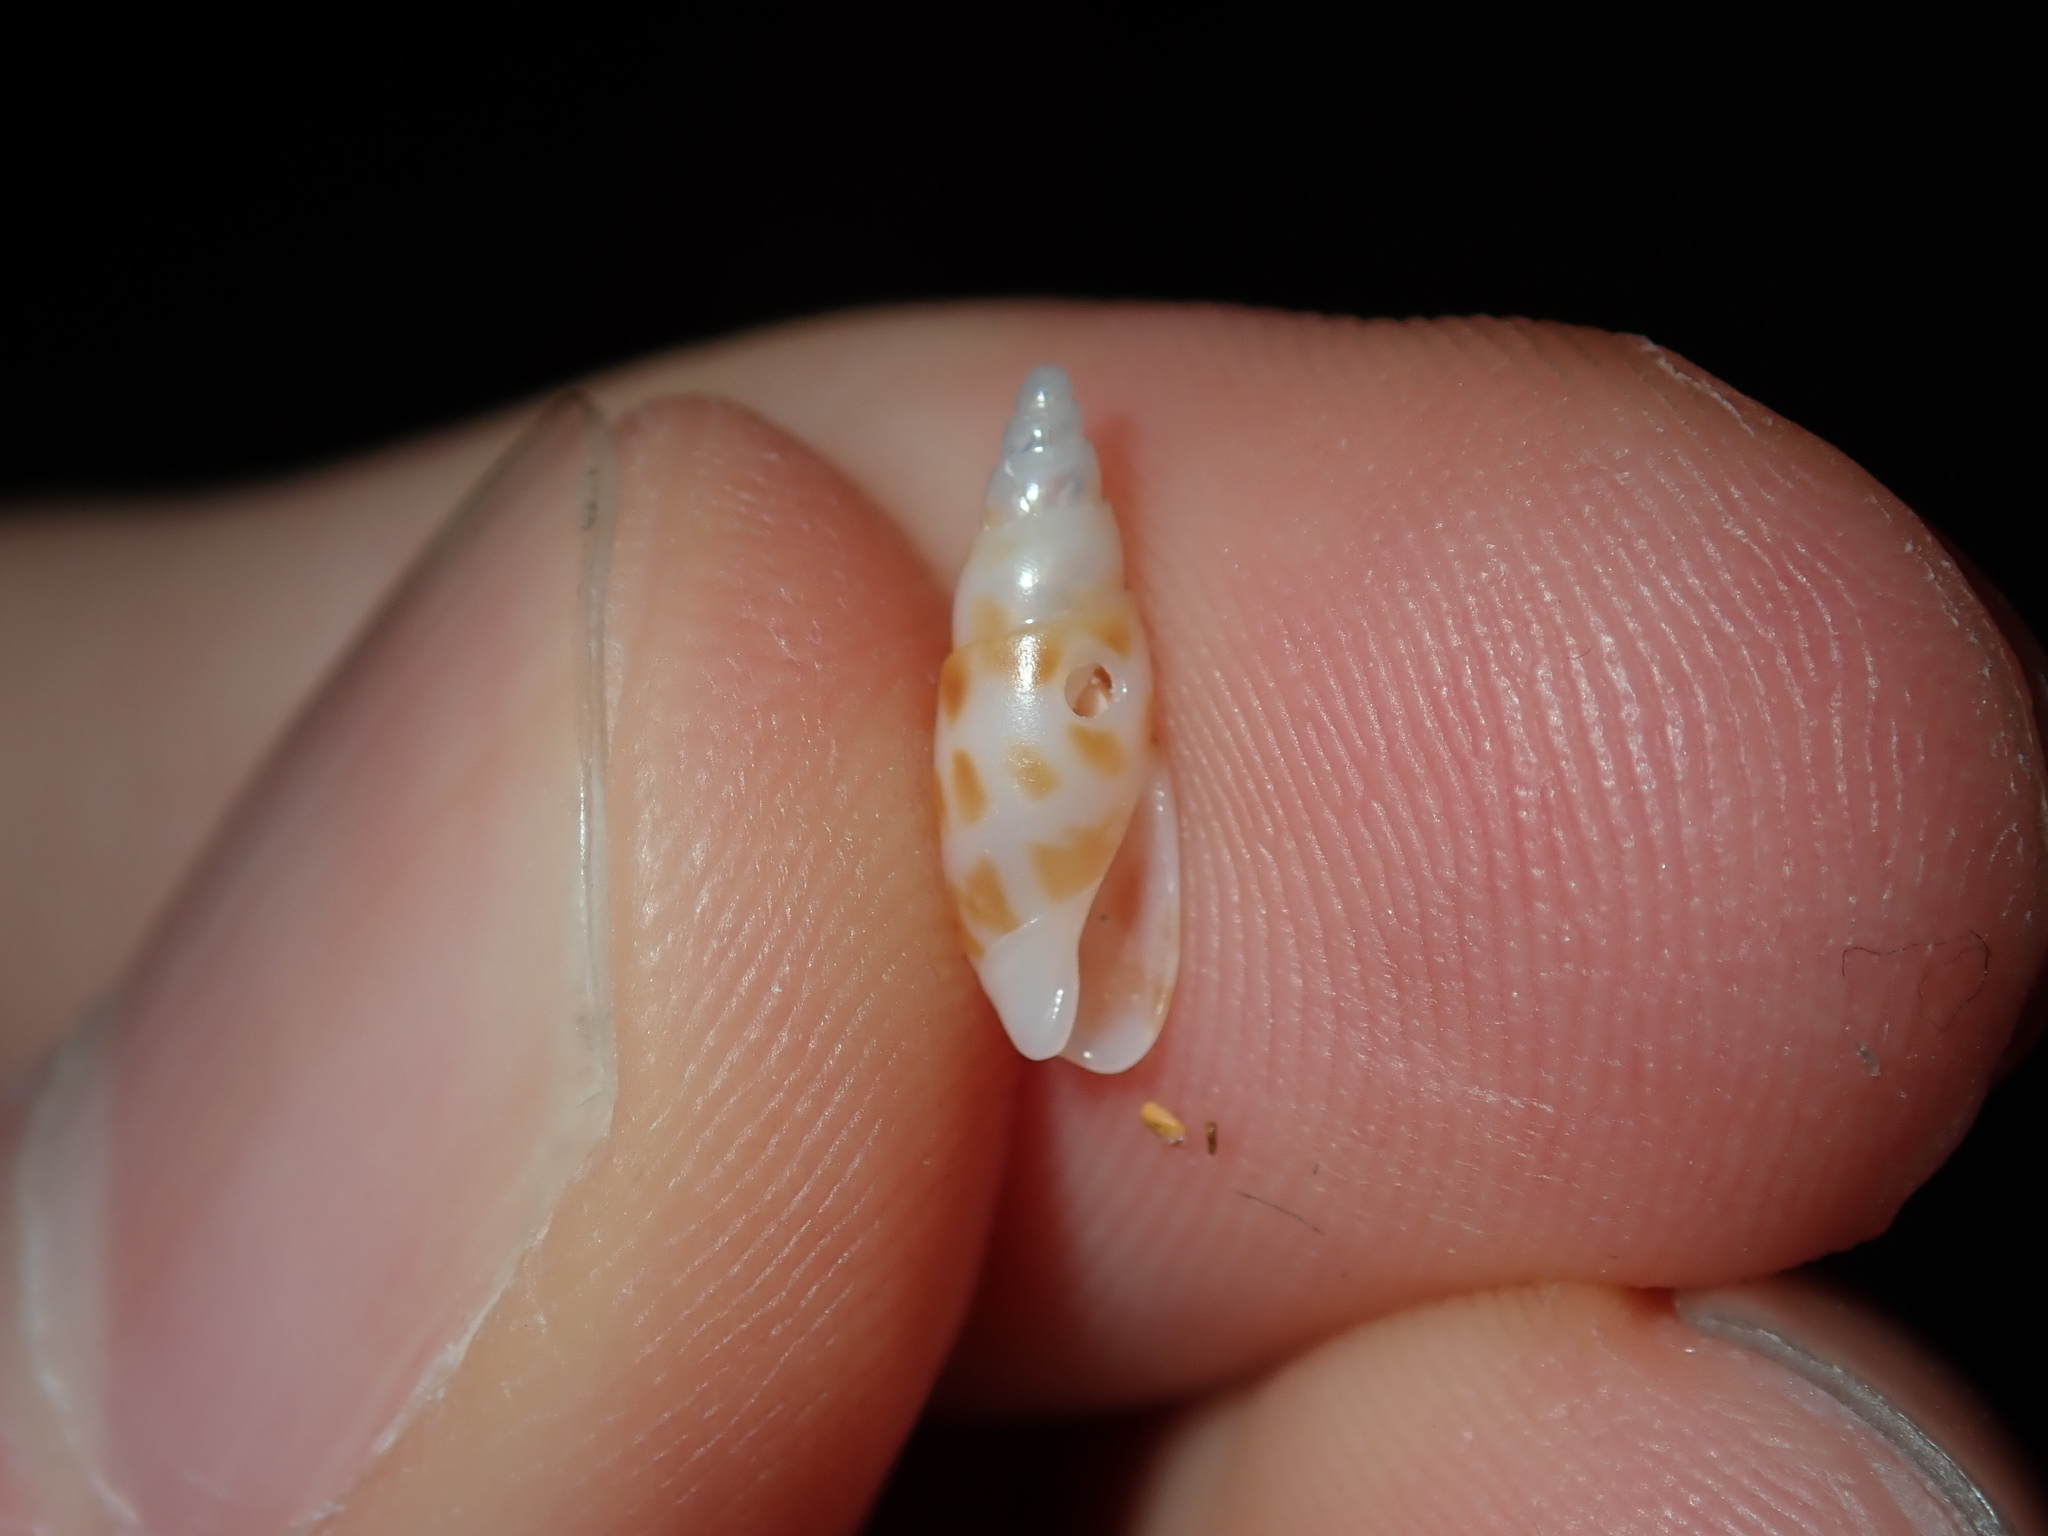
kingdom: Animalia
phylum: Mollusca
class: Gastropoda
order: Neogastropoda
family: Bellolividae
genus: Belloliva
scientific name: Belloliva triticea
